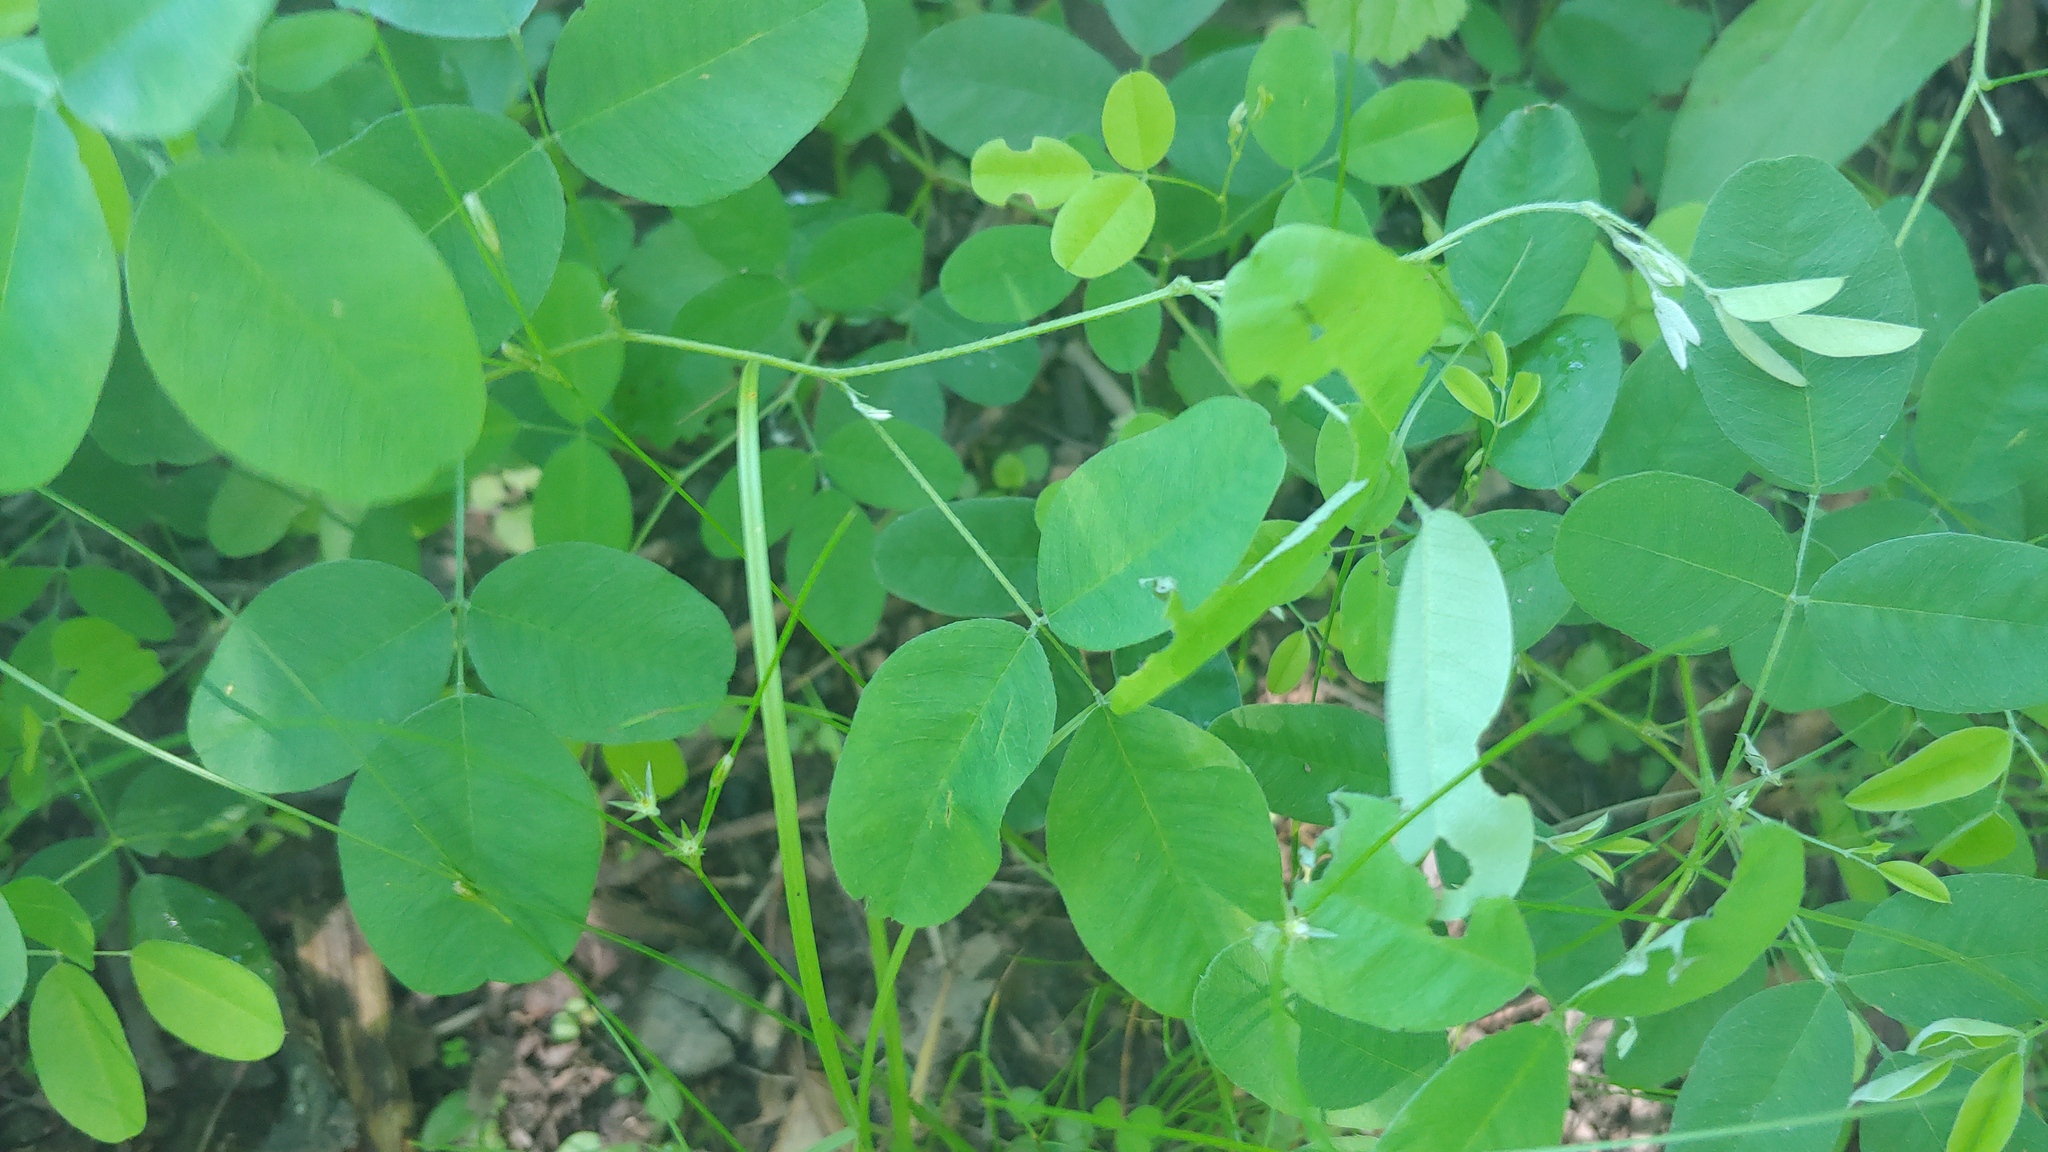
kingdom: Plantae
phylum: Tracheophyta
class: Magnoliopsida
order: Fabales
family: Fabaceae
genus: Lespedeza
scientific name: Lespedeza
